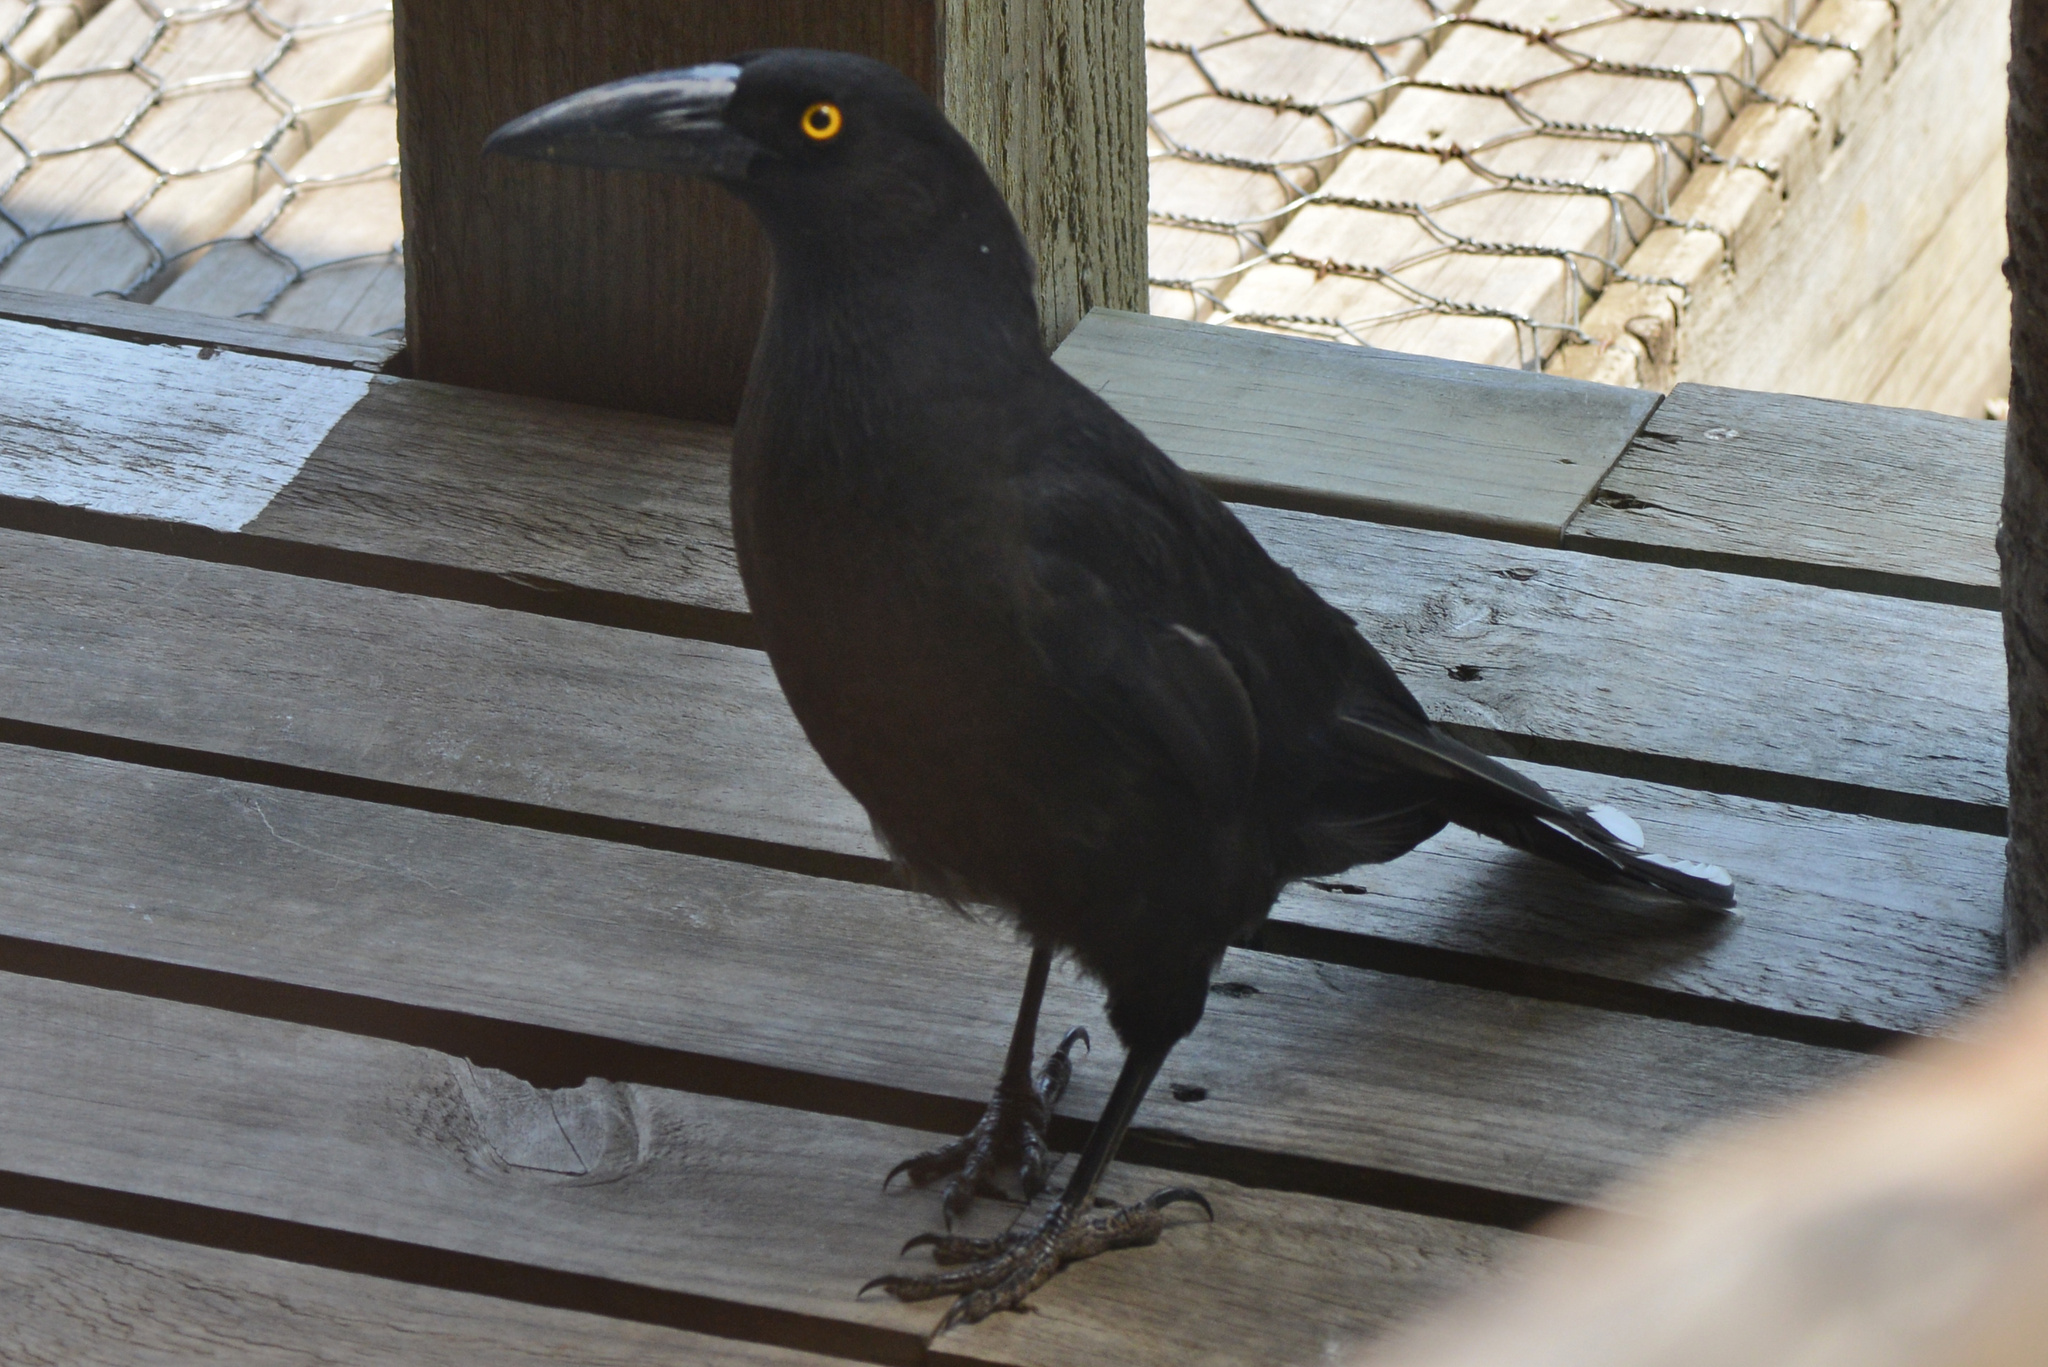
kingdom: Animalia
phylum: Chordata
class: Aves
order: Passeriformes
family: Cracticidae
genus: Strepera
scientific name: Strepera fuliginosa
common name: Black currawong
